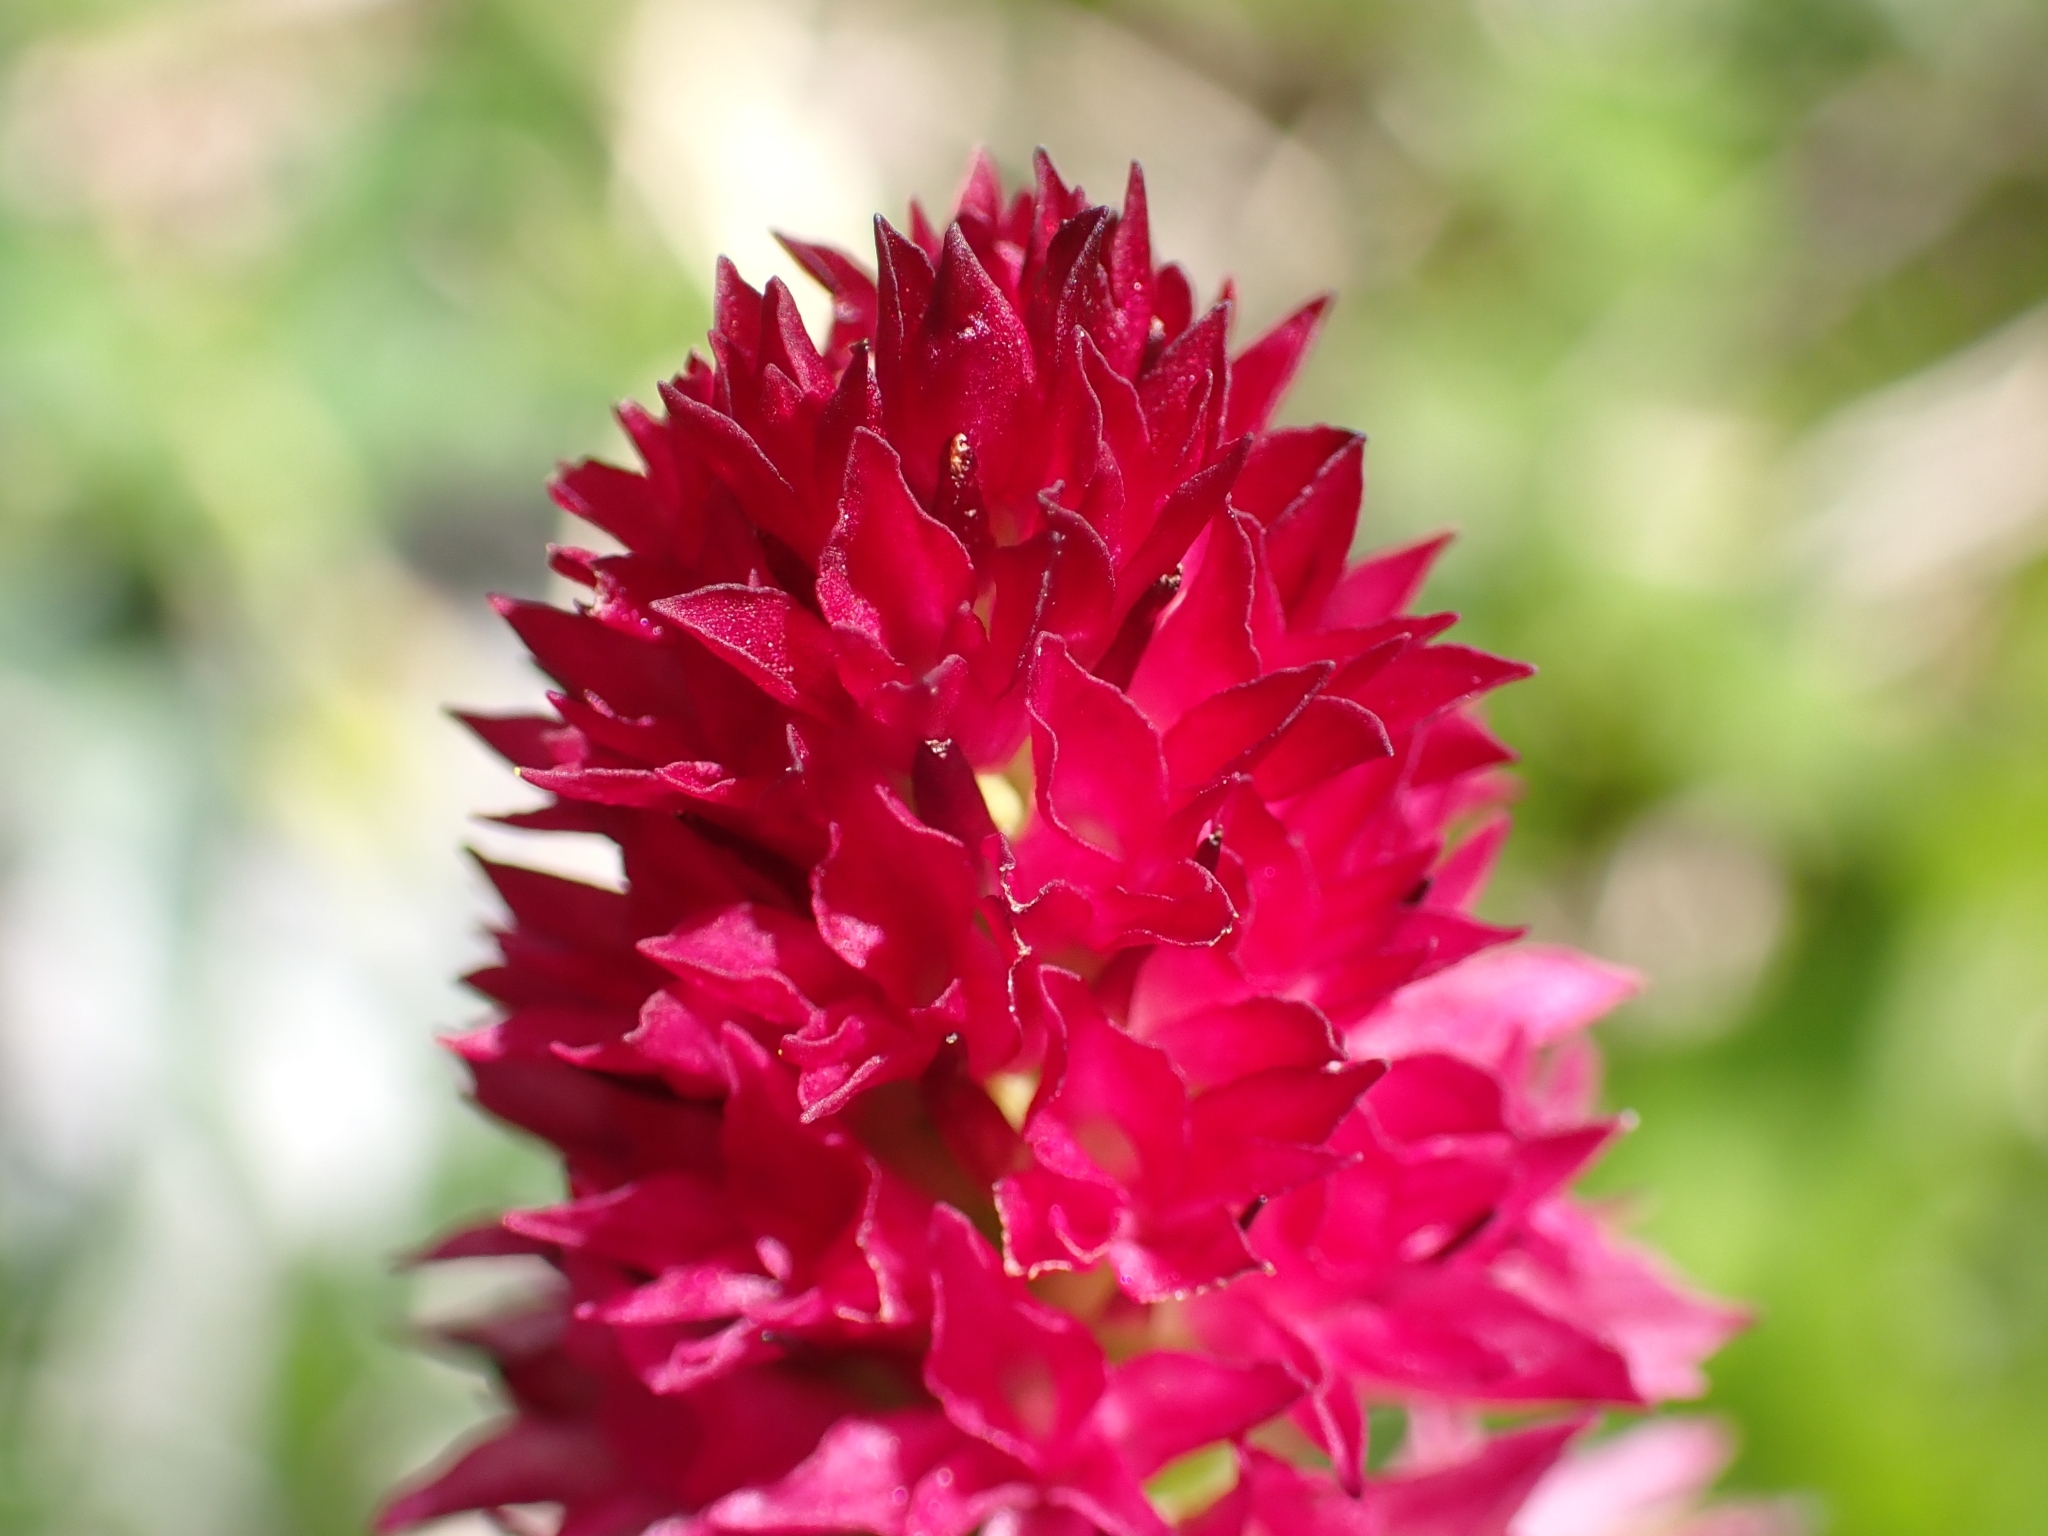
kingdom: Plantae
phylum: Tracheophyta
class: Liliopsida
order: Asparagales
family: Orchidaceae
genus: Gymnadenia
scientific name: Gymnadenia miniata
